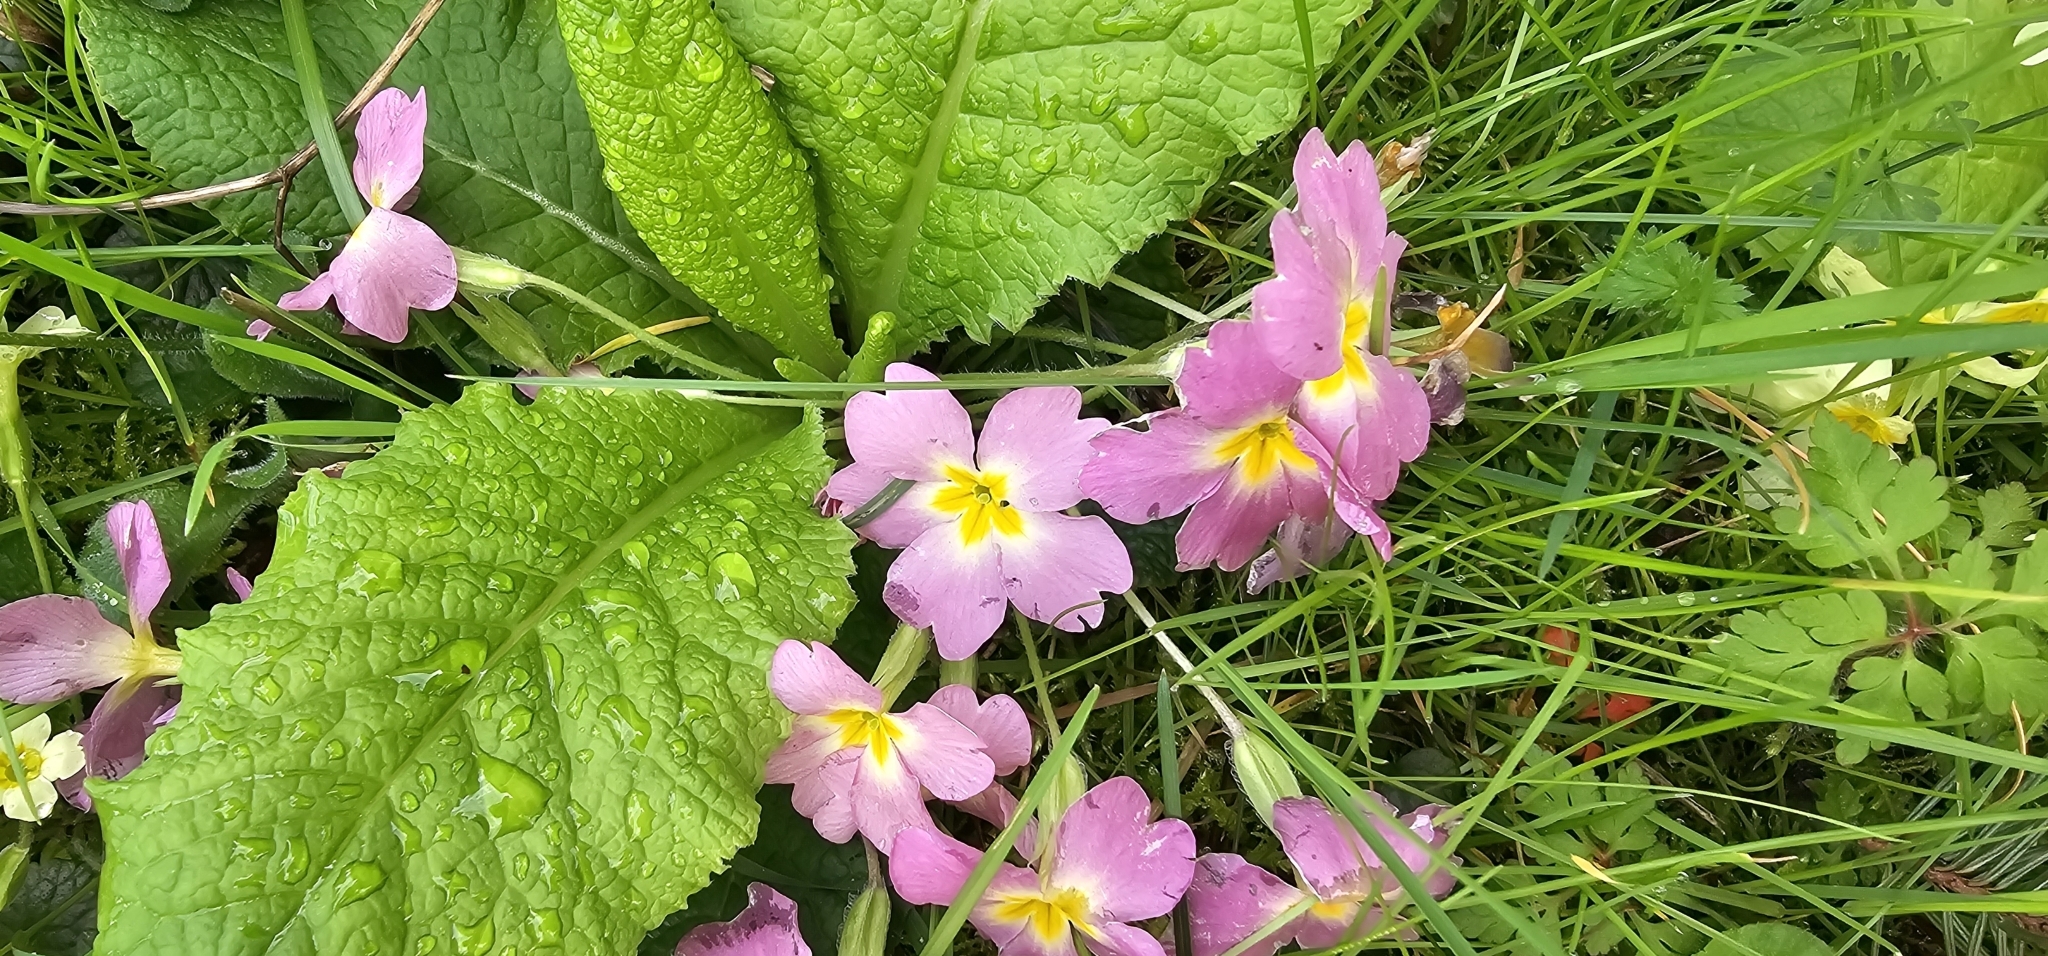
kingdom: Plantae
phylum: Tracheophyta
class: Magnoliopsida
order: Ericales
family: Primulaceae
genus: Primula
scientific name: Primula vulgaris
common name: Primrose
